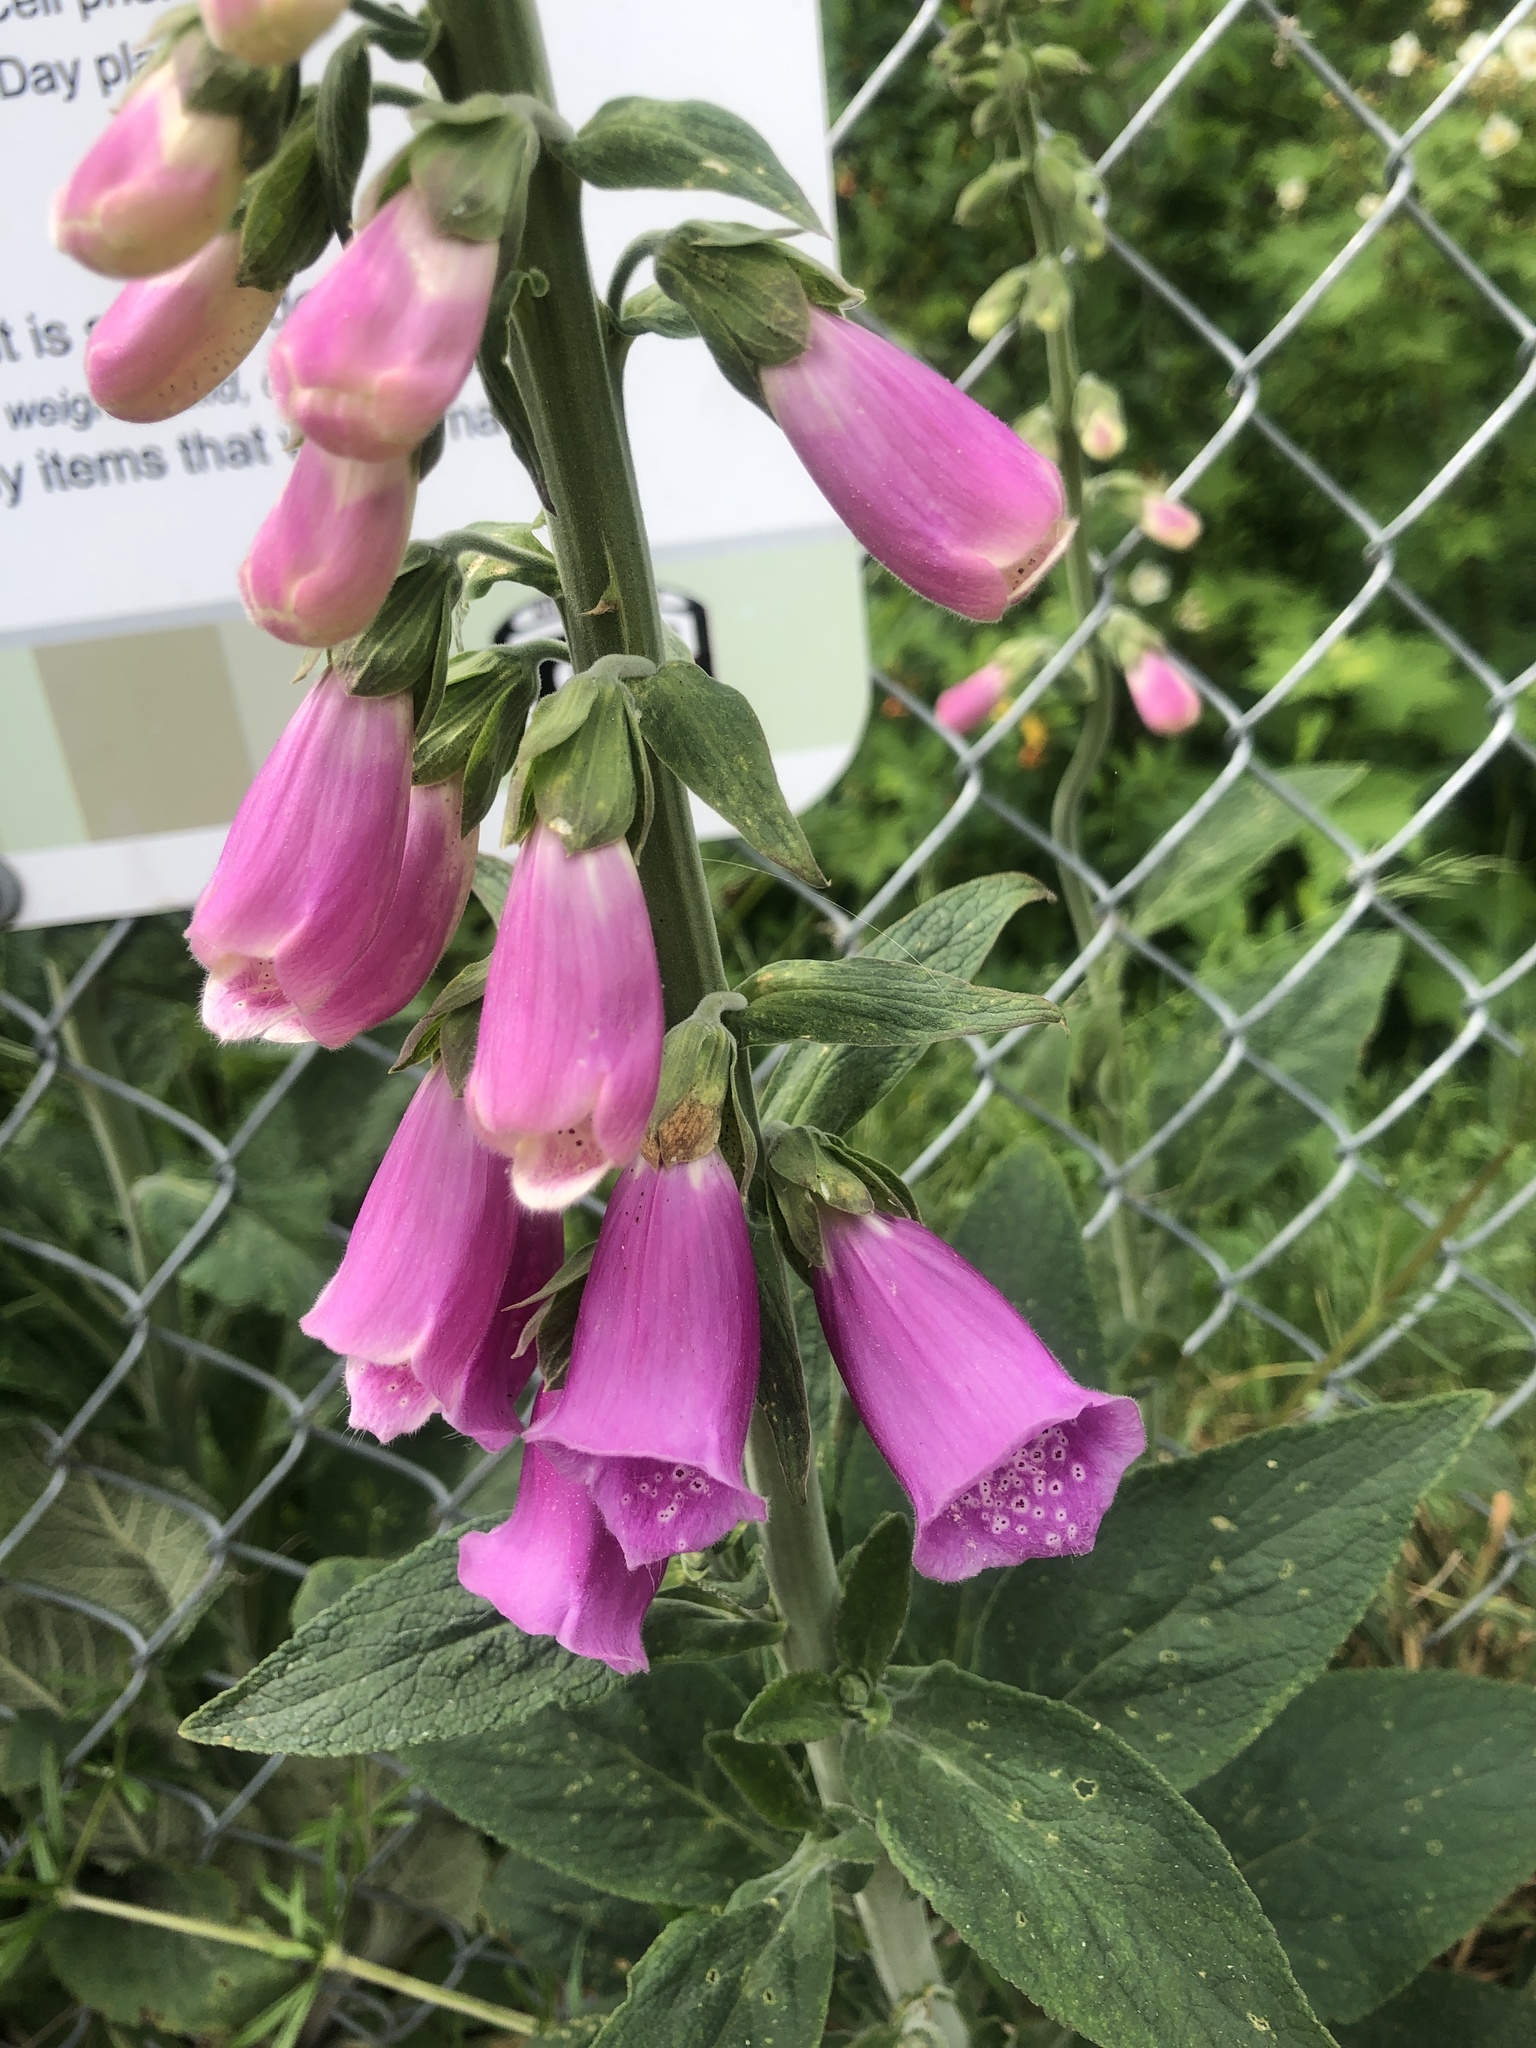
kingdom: Plantae
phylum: Tracheophyta
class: Magnoliopsida
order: Lamiales
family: Plantaginaceae
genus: Digitalis
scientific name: Digitalis purpurea
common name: Foxglove
